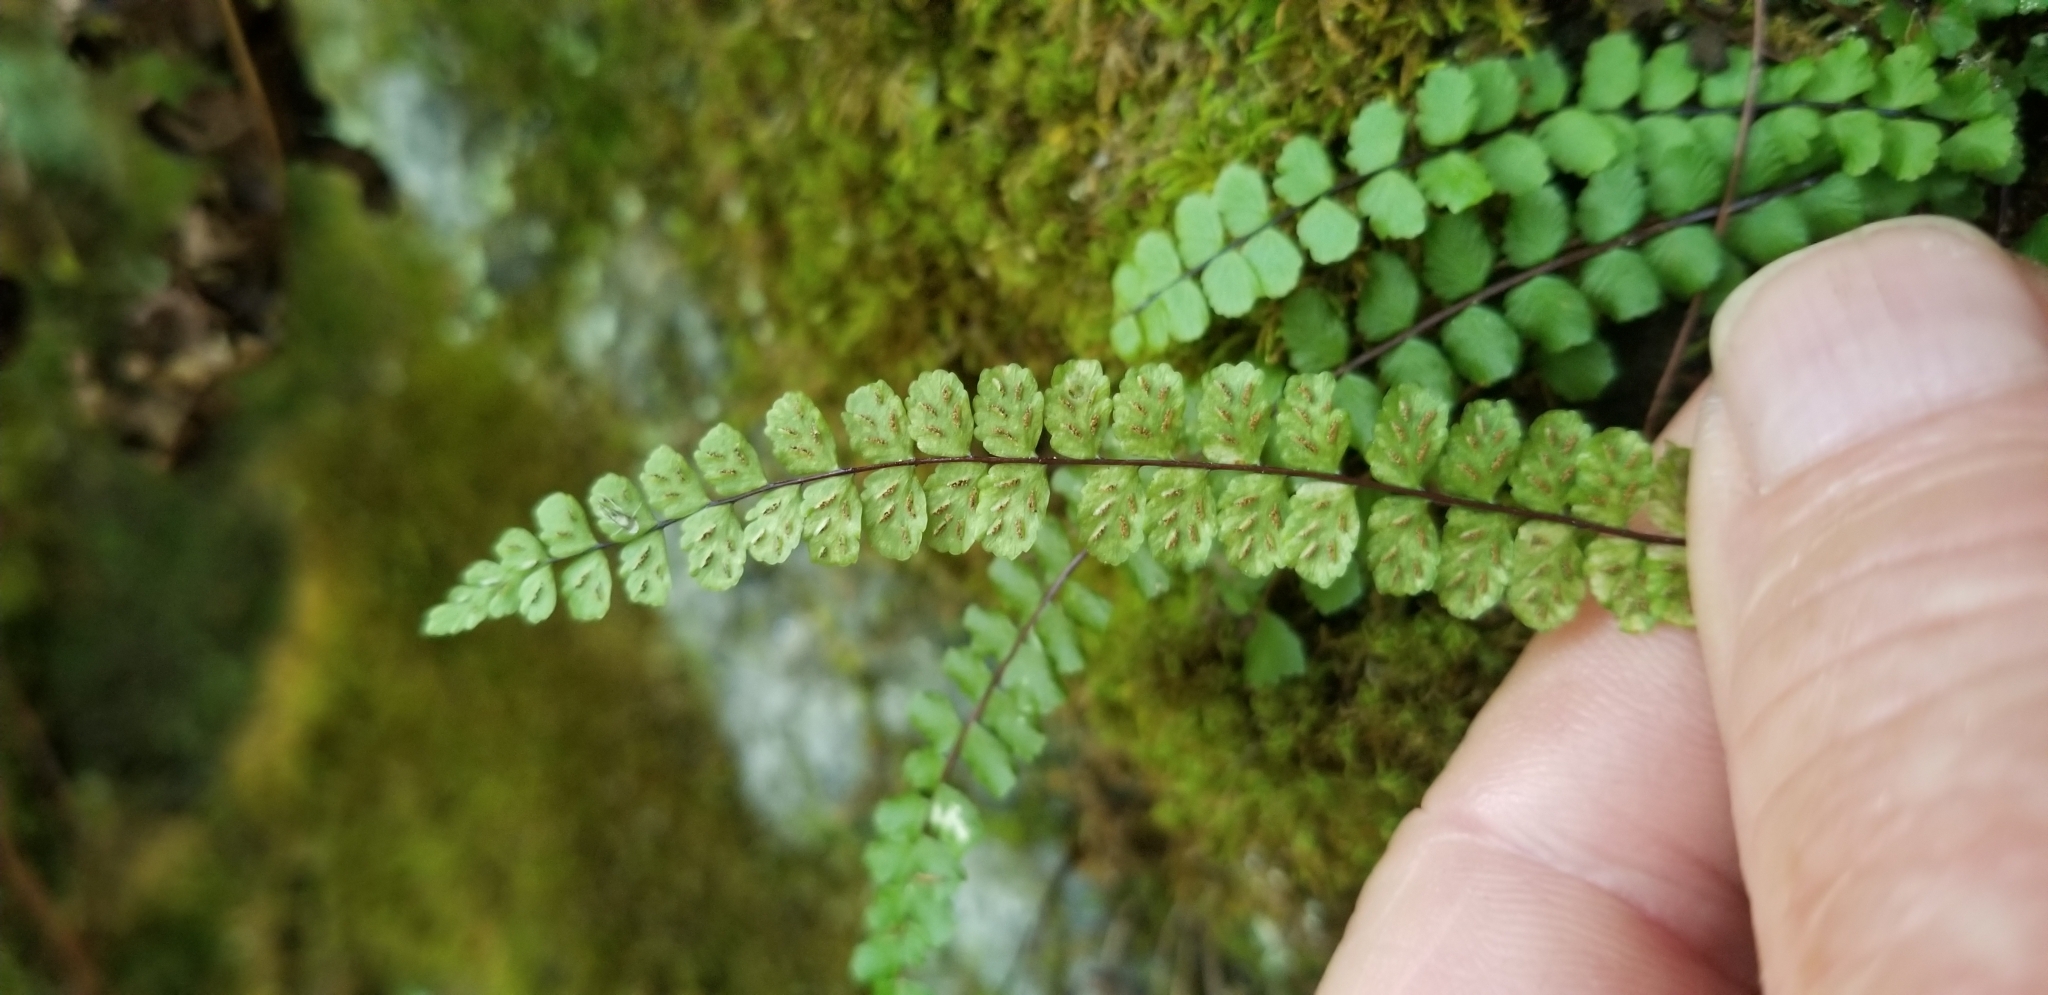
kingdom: Plantae
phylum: Tracheophyta
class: Polypodiopsida
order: Polypodiales
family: Aspleniaceae
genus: Asplenium
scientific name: Asplenium trichomanes
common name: Maidenhair spleenwort
